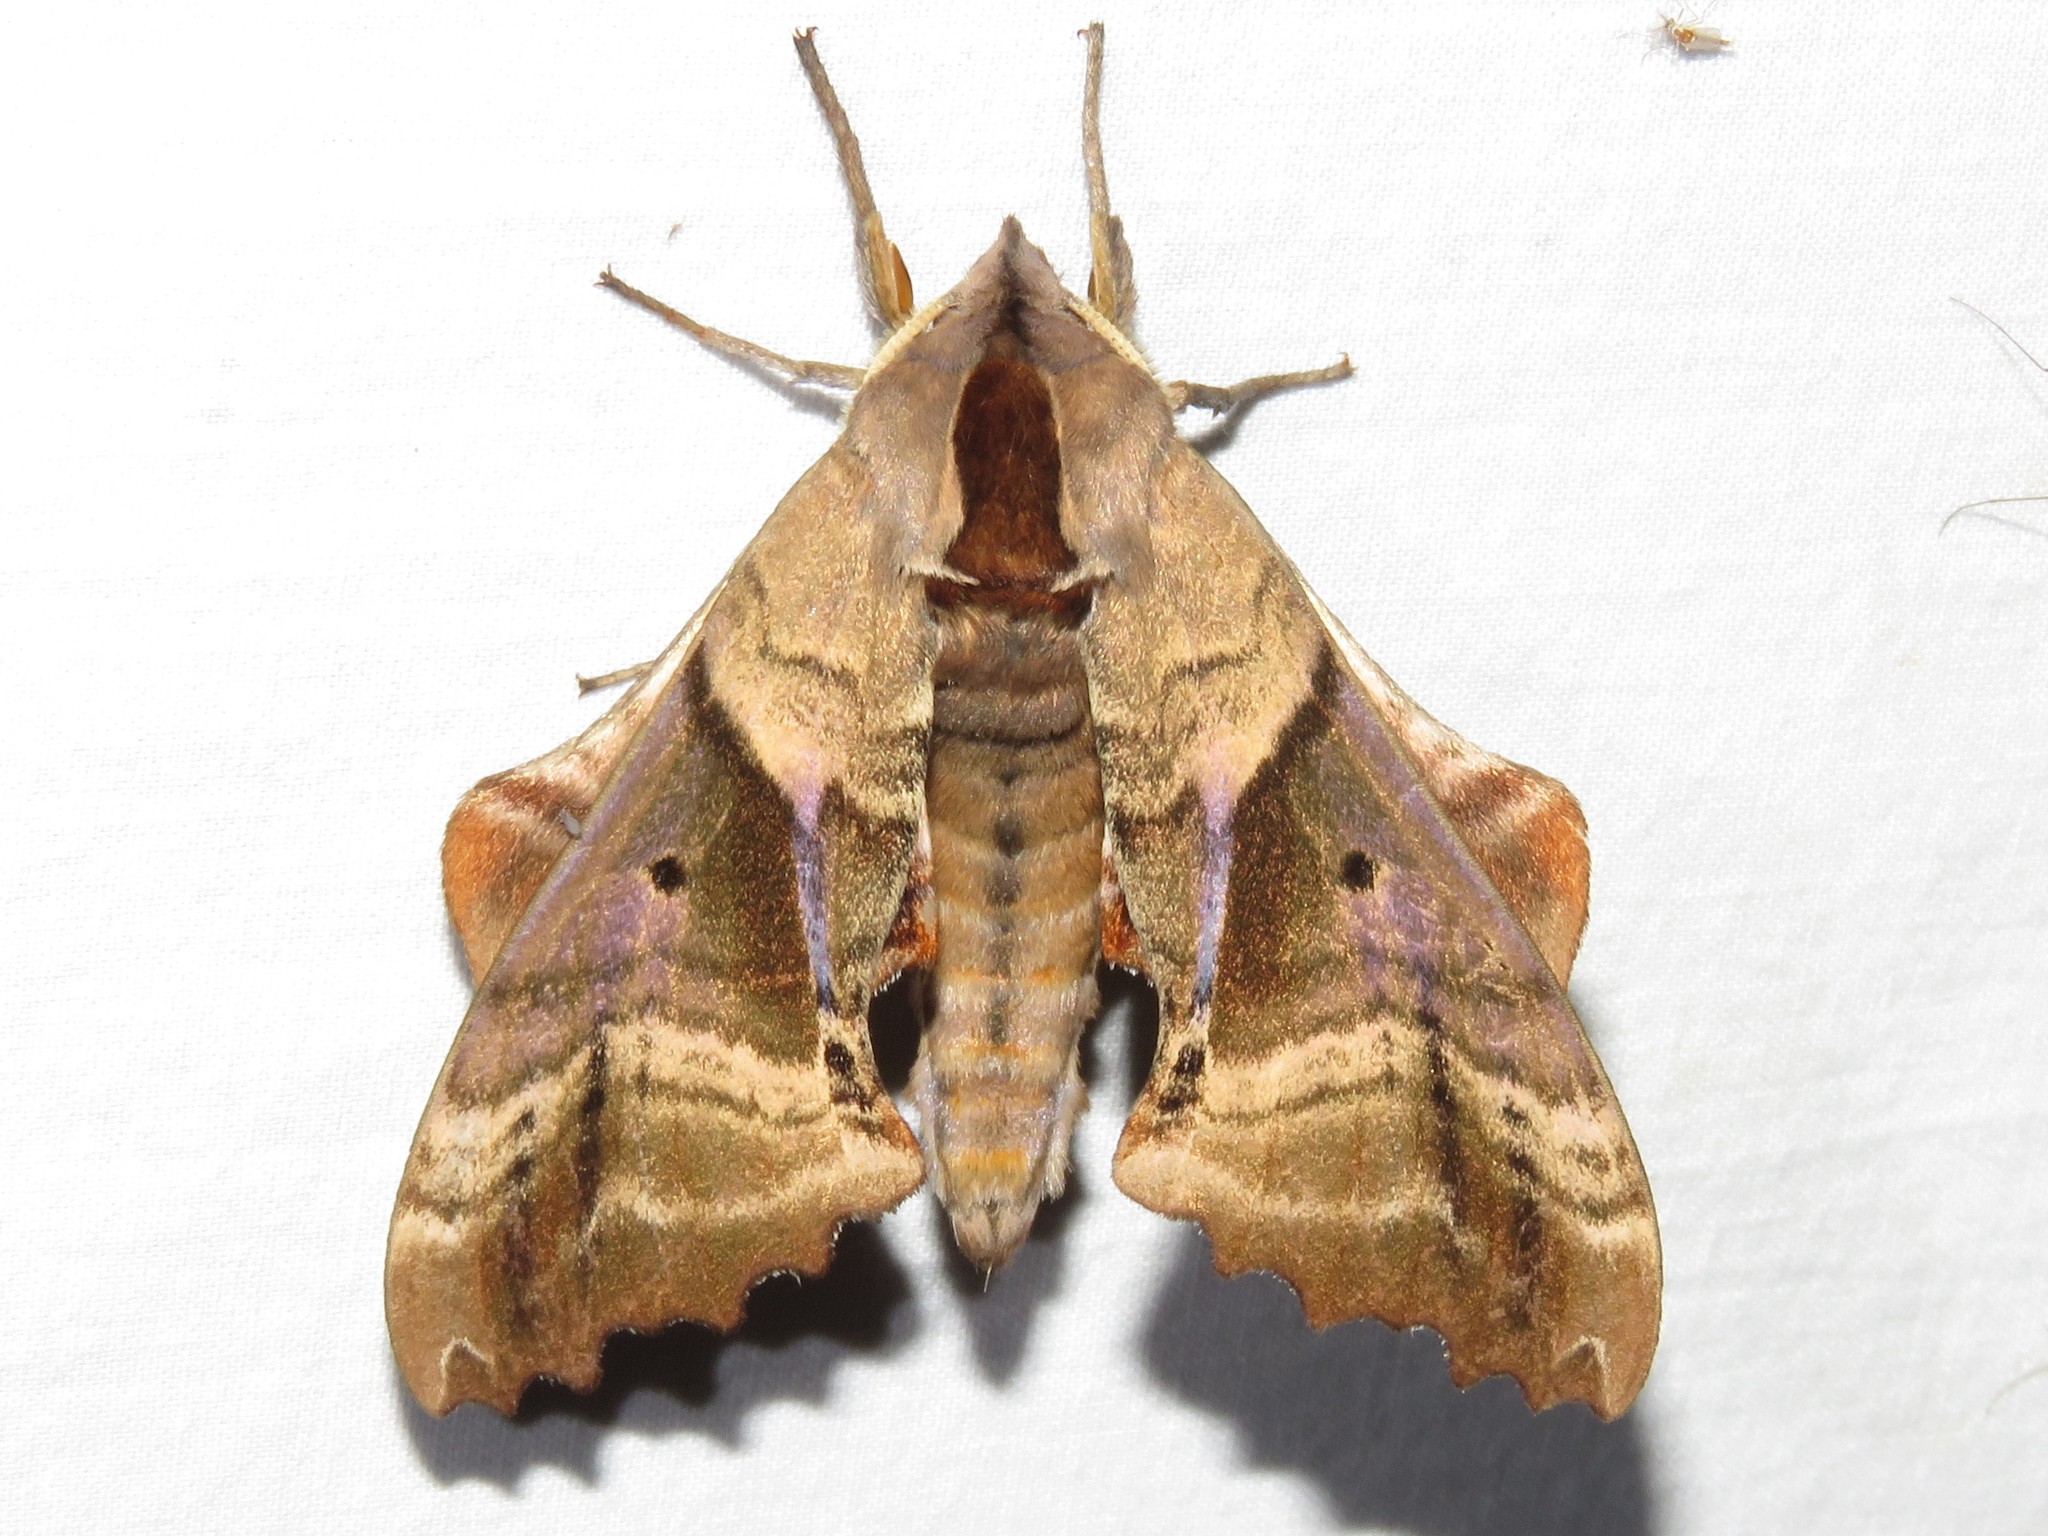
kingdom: Animalia
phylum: Arthropoda
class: Insecta
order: Lepidoptera
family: Sphingidae
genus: Paonias
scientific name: Paonias excaecata
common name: Blind-eyed sphinx
